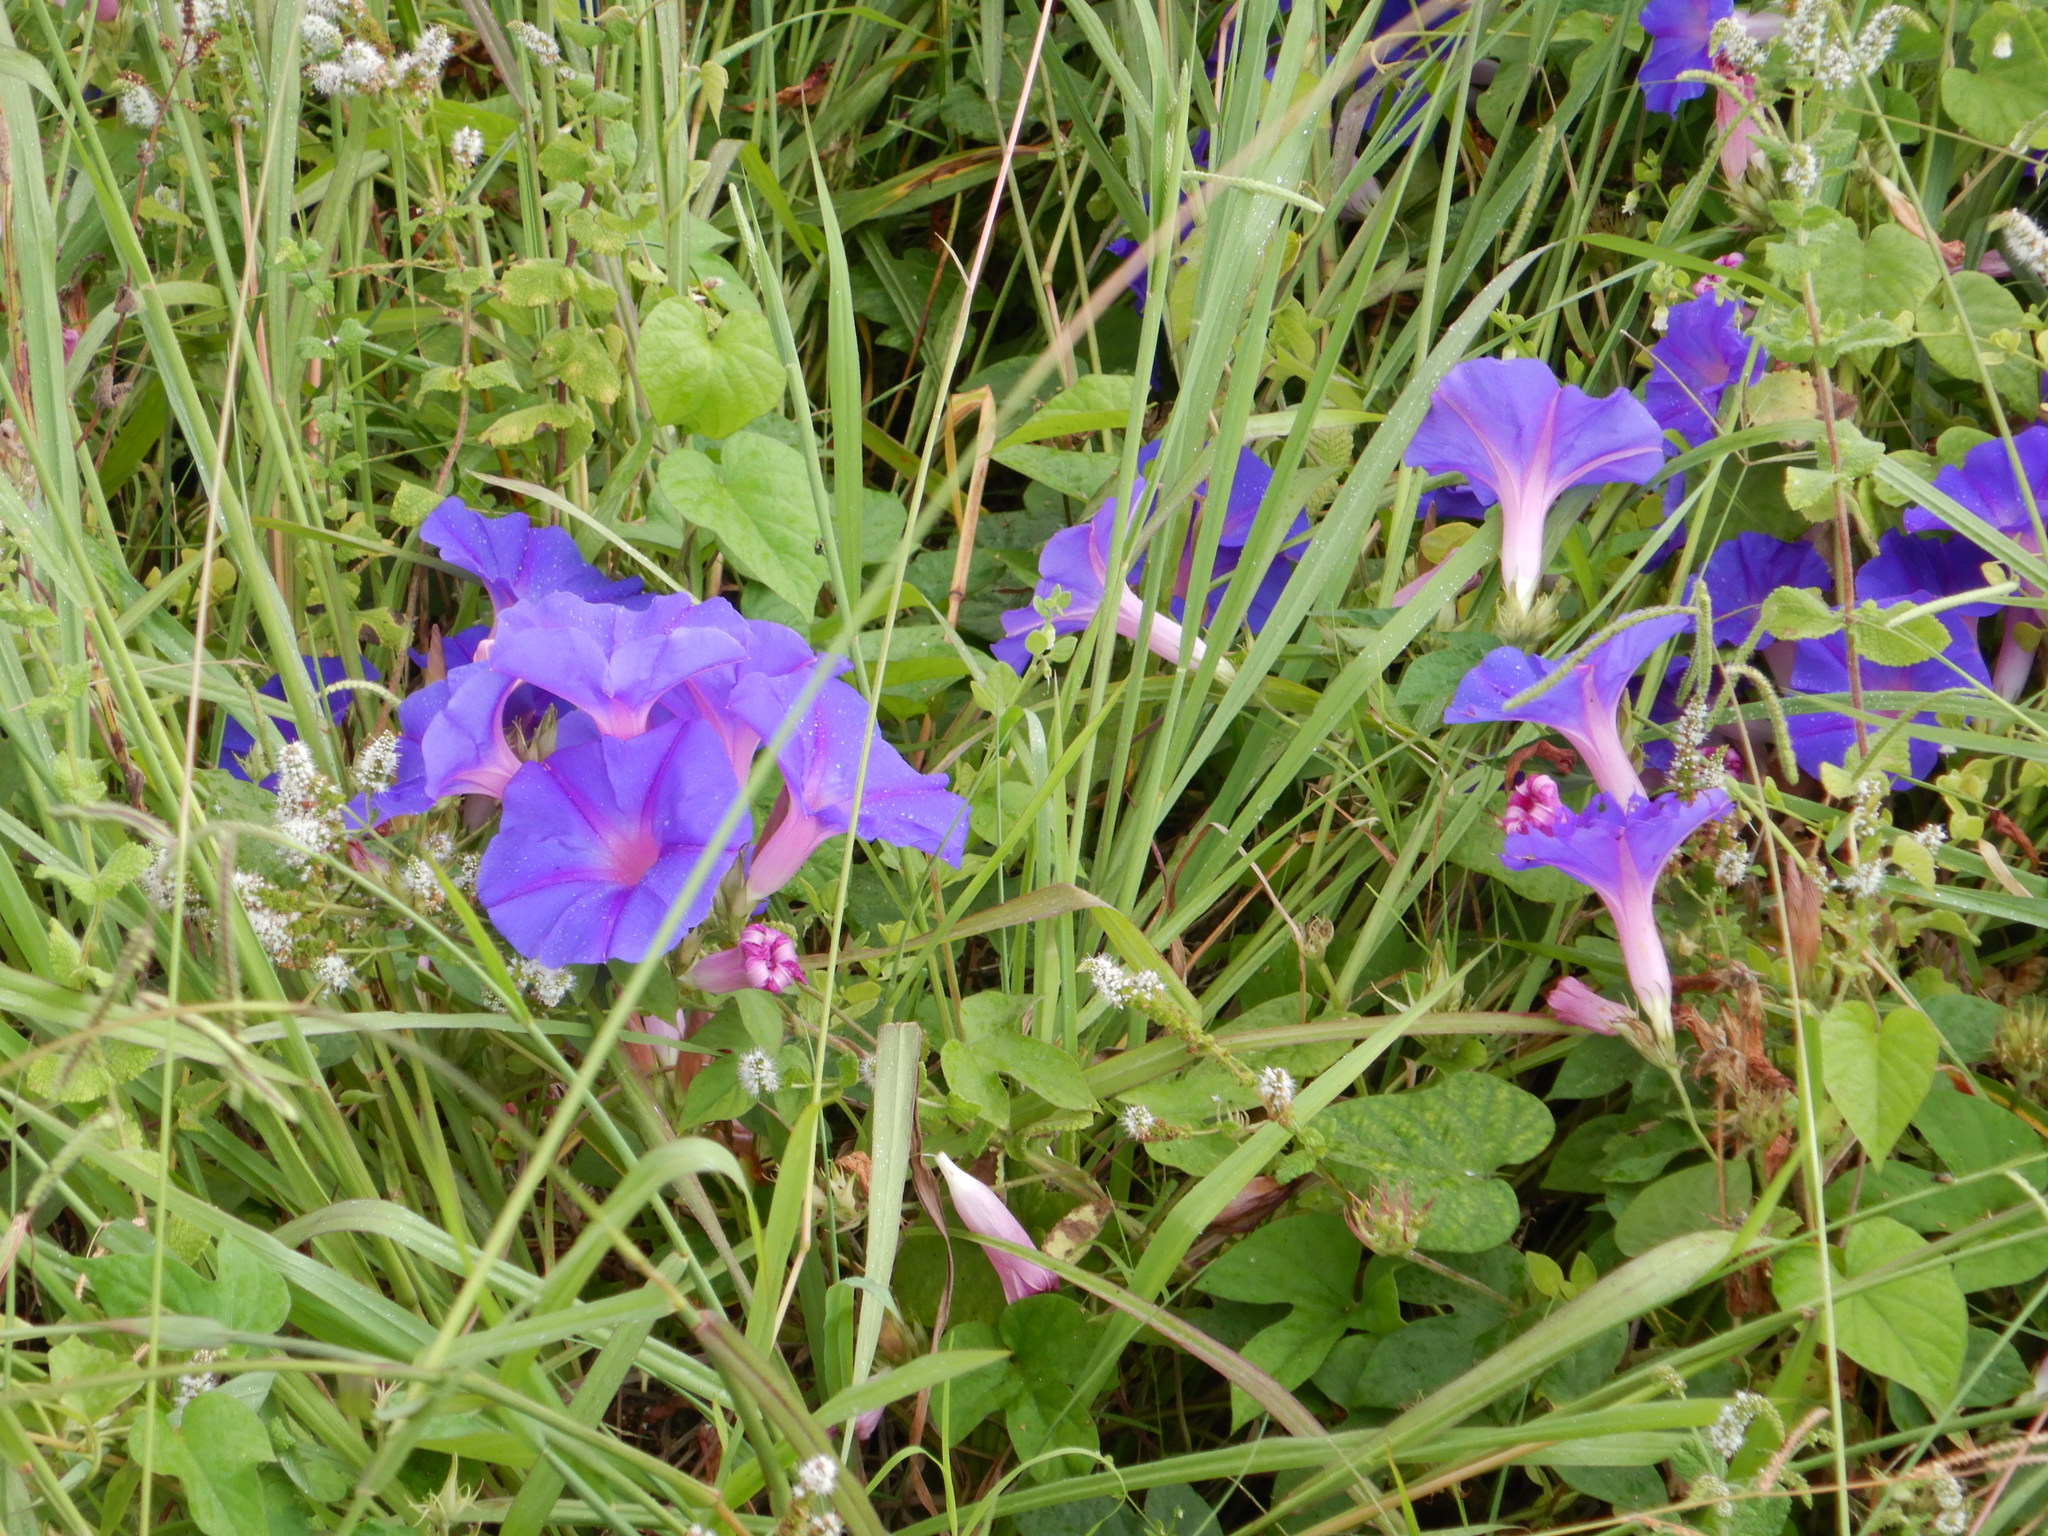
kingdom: Plantae
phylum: Tracheophyta
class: Magnoliopsida
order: Solanales
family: Convolvulaceae
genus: Ipomoea
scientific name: Ipomoea indica
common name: Blue dawnflower
